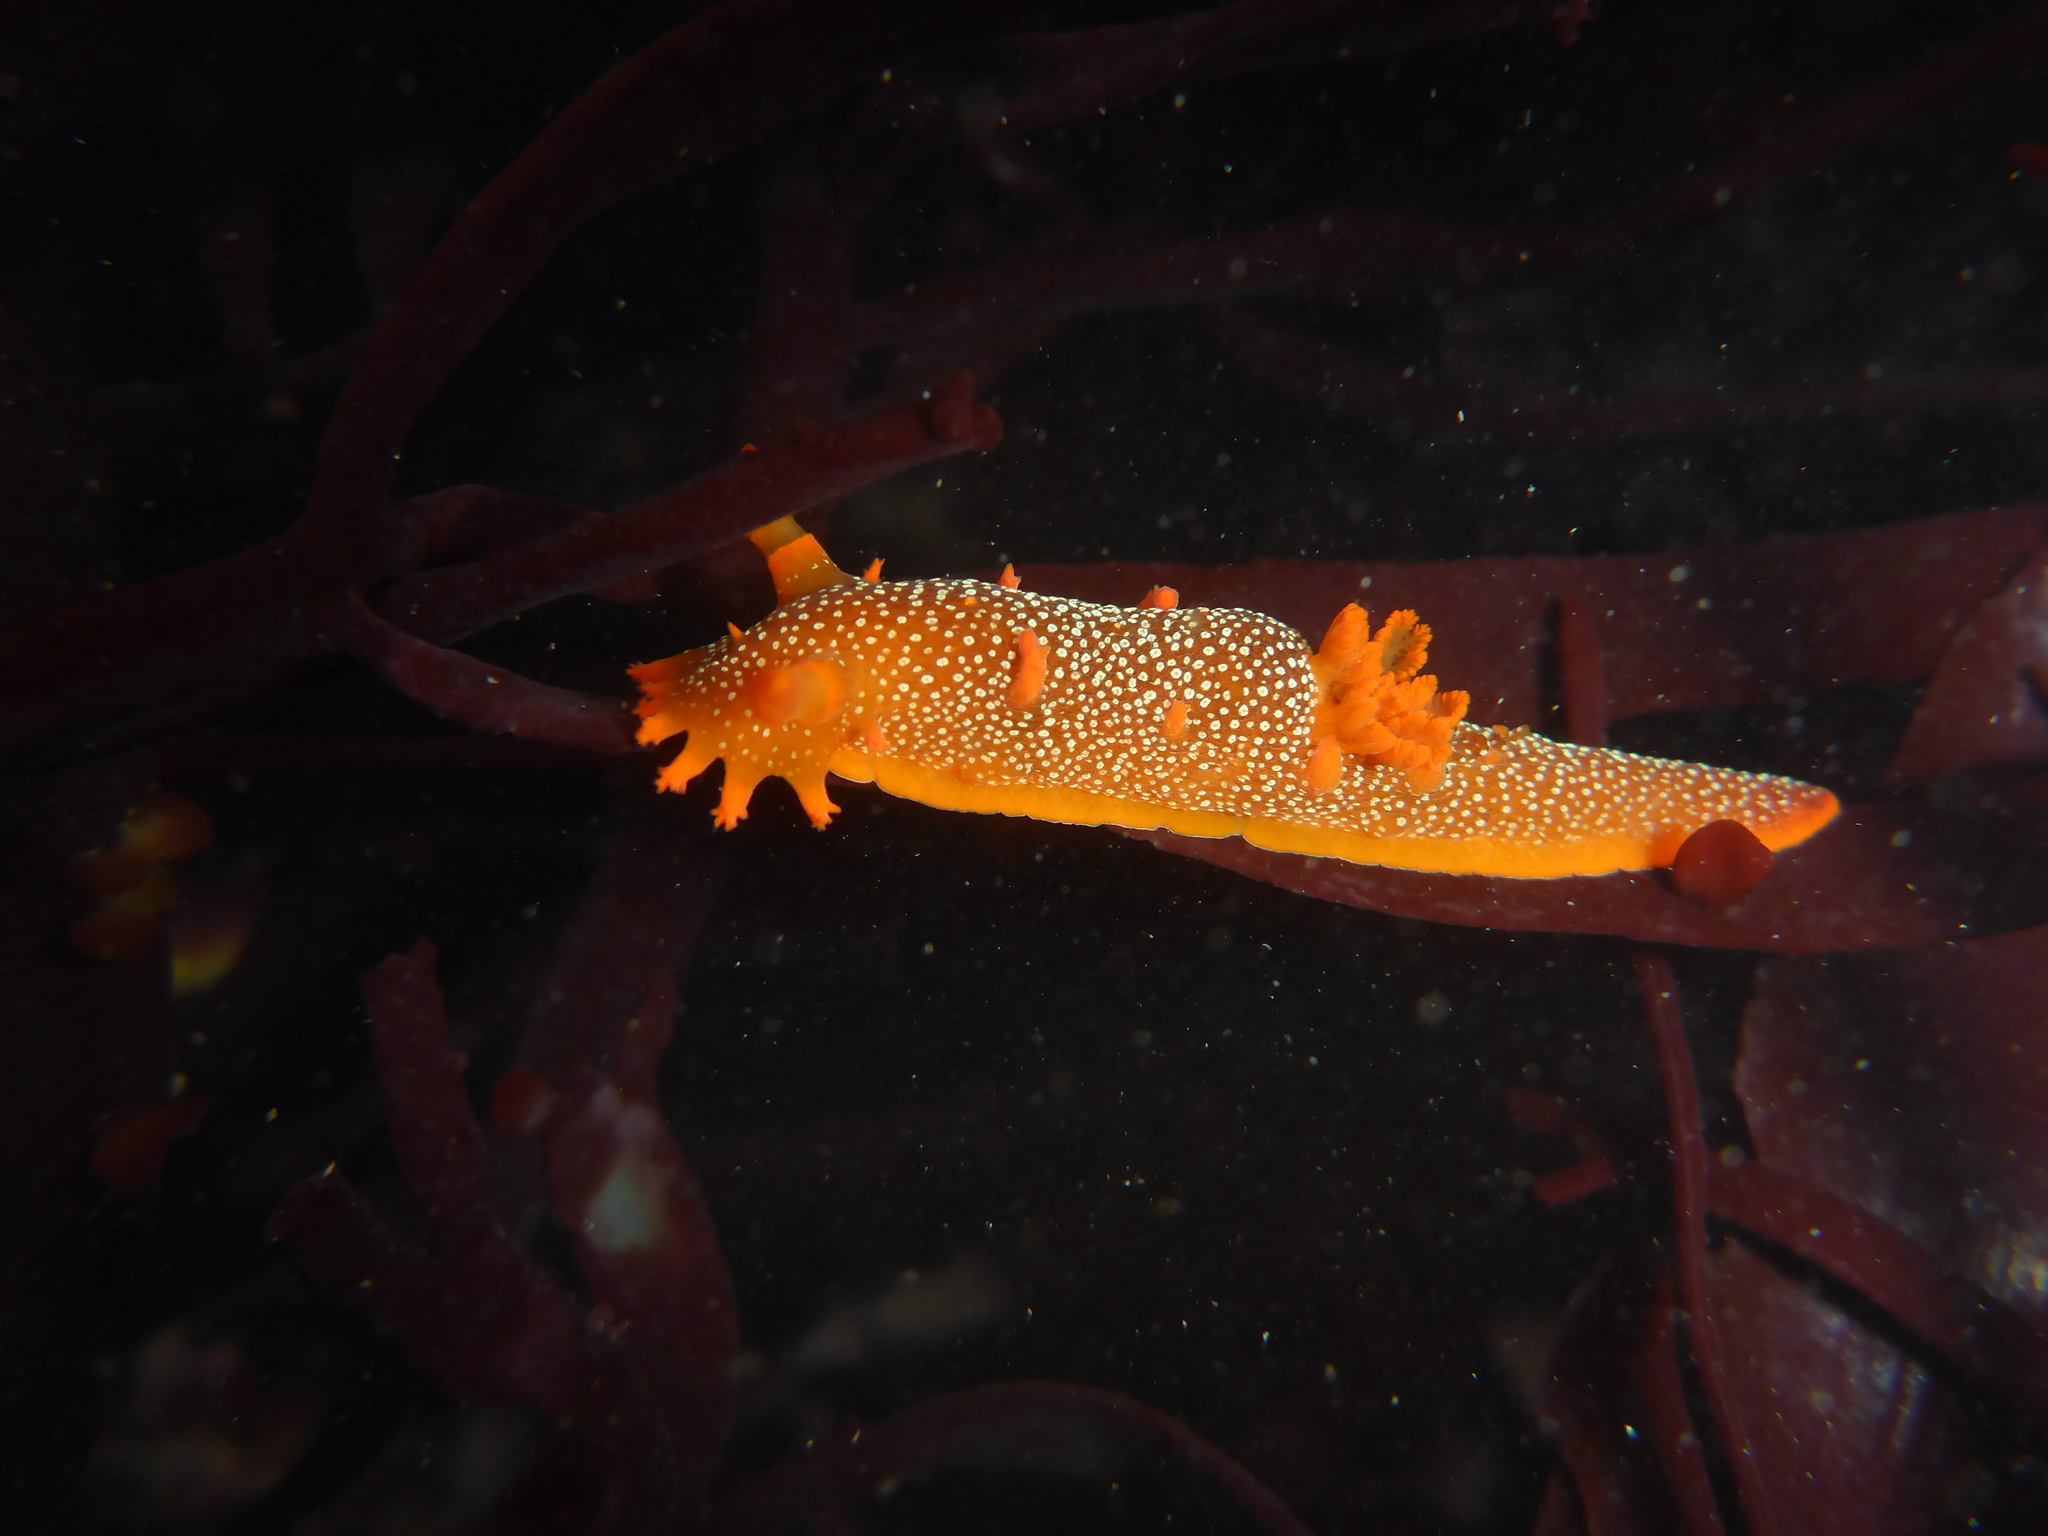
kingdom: Animalia
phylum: Mollusca
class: Gastropoda
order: Nudibranchia
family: Polyceridae
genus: Triopha
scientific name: Triopha maculata
